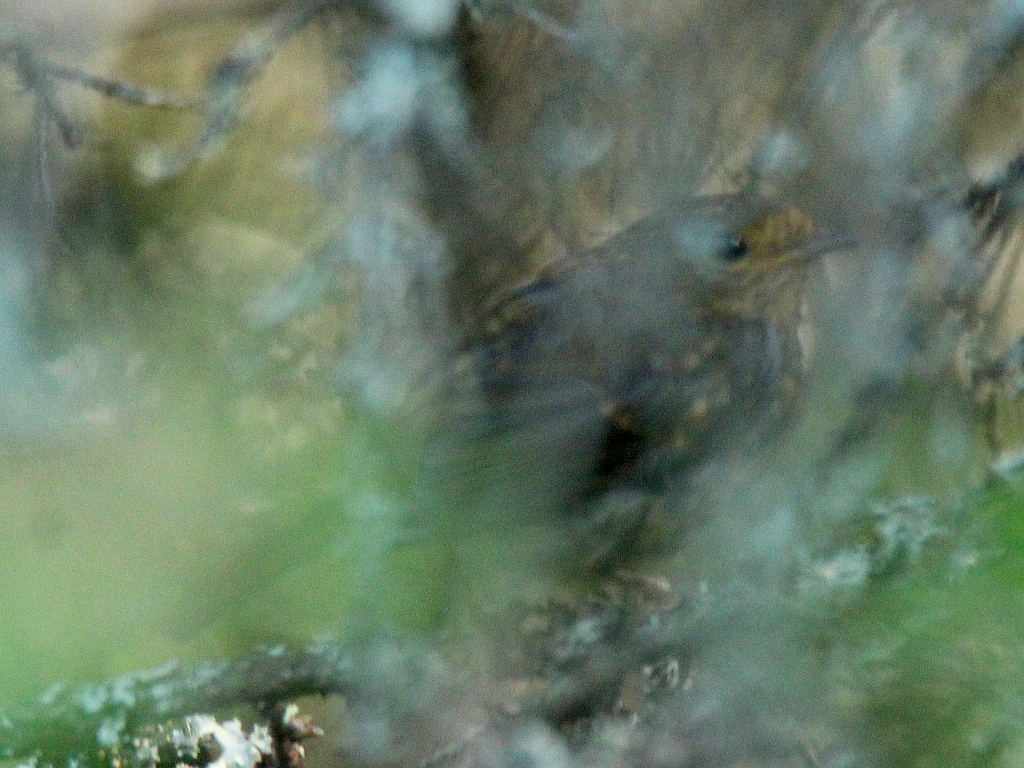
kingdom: Animalia
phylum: Chordata
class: Aves
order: Passeriformes
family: Muscicapidae
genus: Erithacus
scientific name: Erithacus rubecula
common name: European robin
